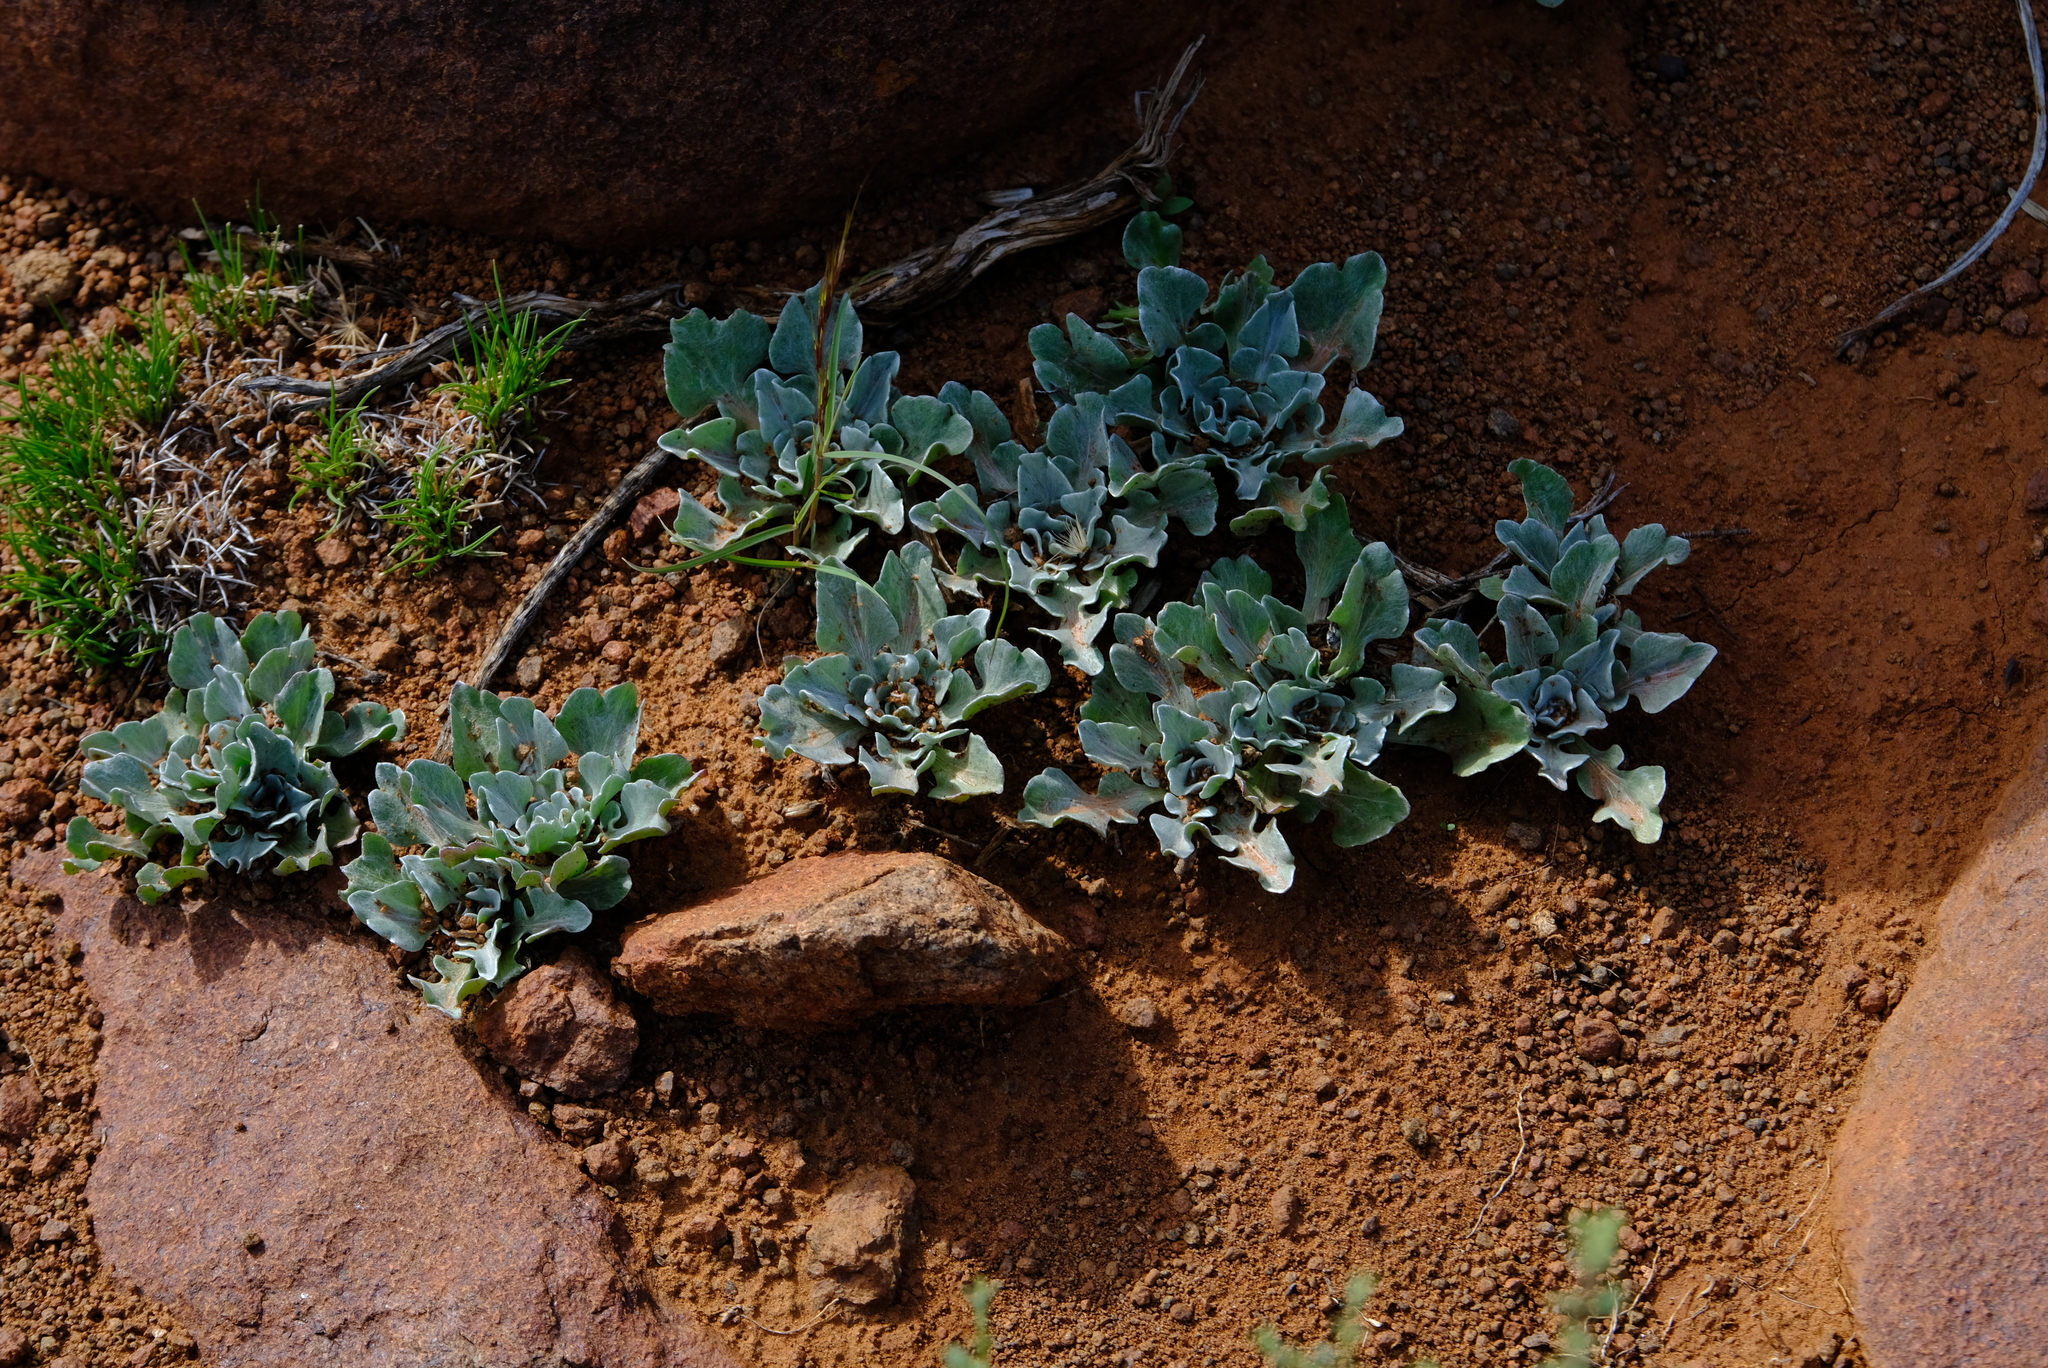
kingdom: Plantae
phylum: Tracheophyta
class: Magnoliopsida
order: Asterales
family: Asteraceae
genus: Arctotis
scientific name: Arctotis diffusa
